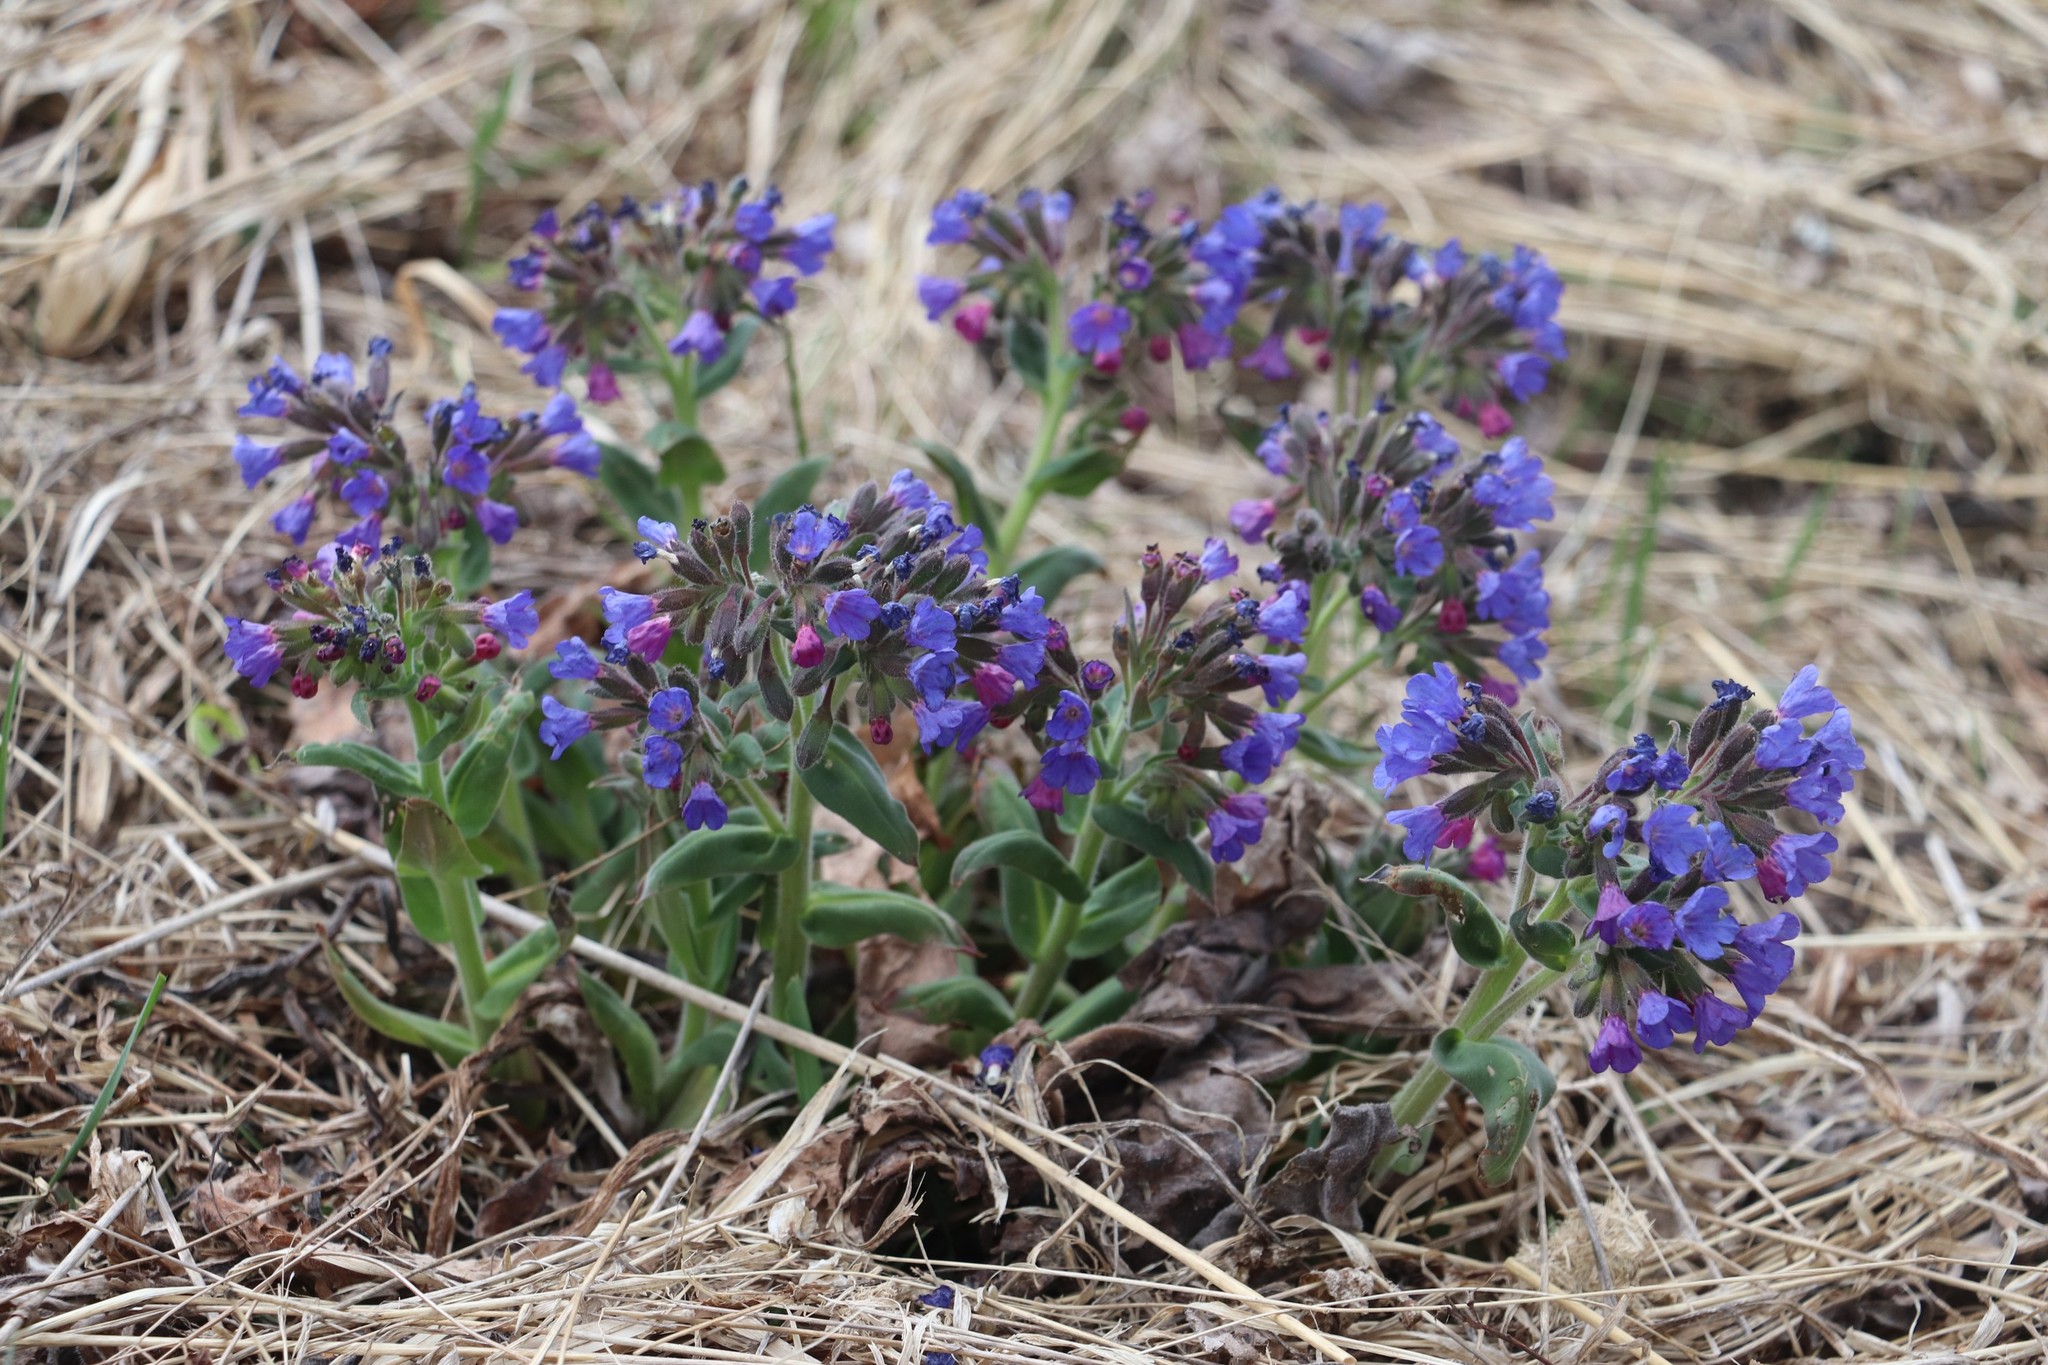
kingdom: Plantae
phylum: Tracheophyta
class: Magnoliopsida
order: Boraginales
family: Boraginaceae
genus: Pulmonaria
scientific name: Pulmonaria mollis
